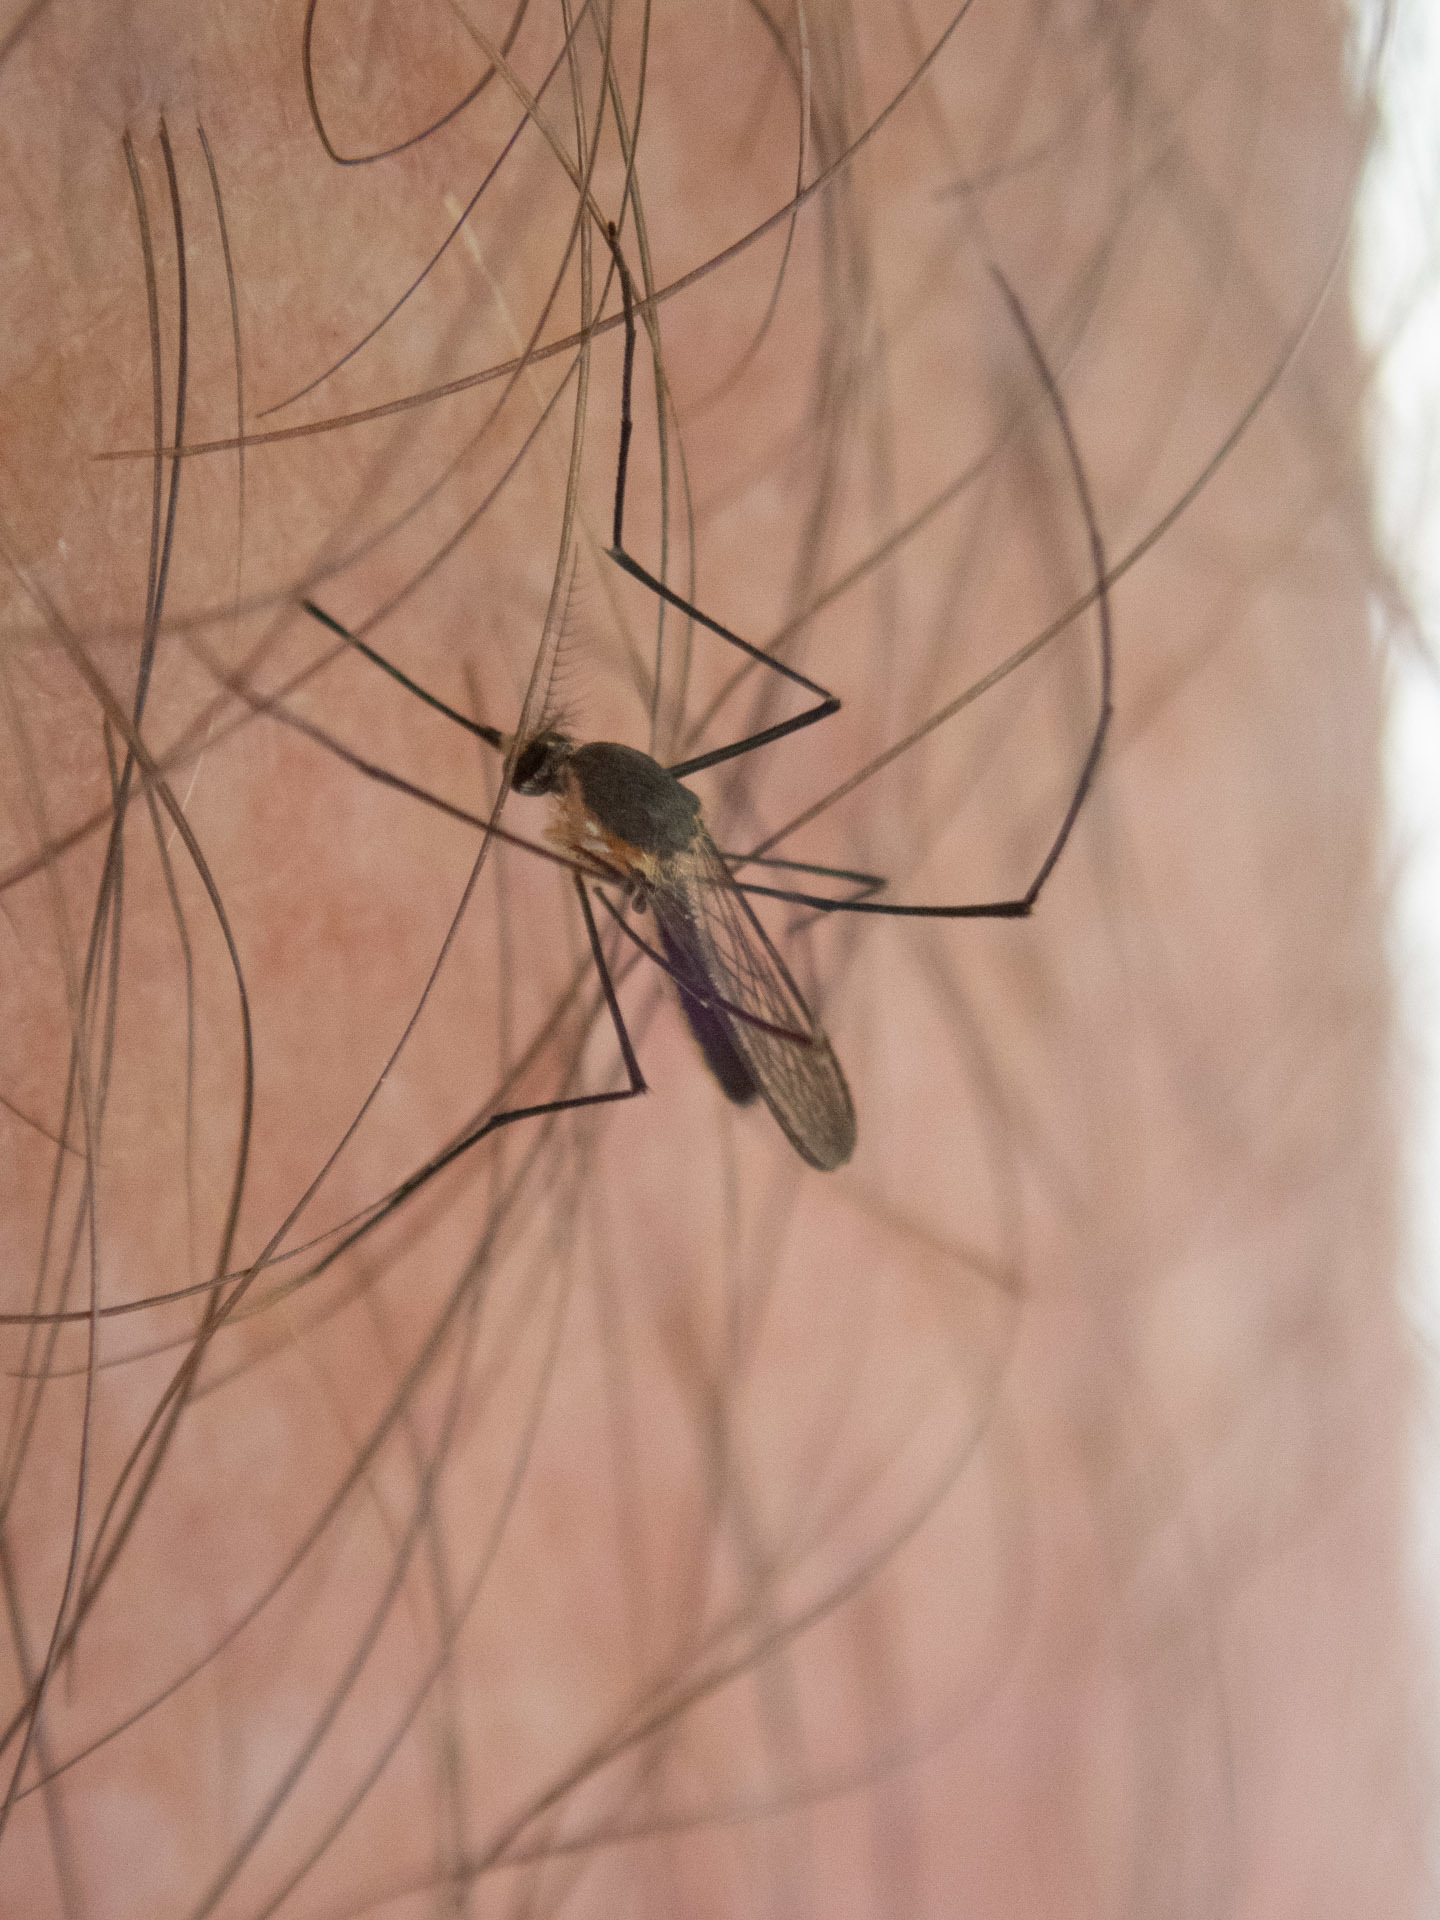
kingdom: Animalia
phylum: Arthropoda
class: Insecta
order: Diptera
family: Culicidae
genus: Wyeomyia
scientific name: Wyeomyia mitchellii
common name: Bromeliad mosquito
